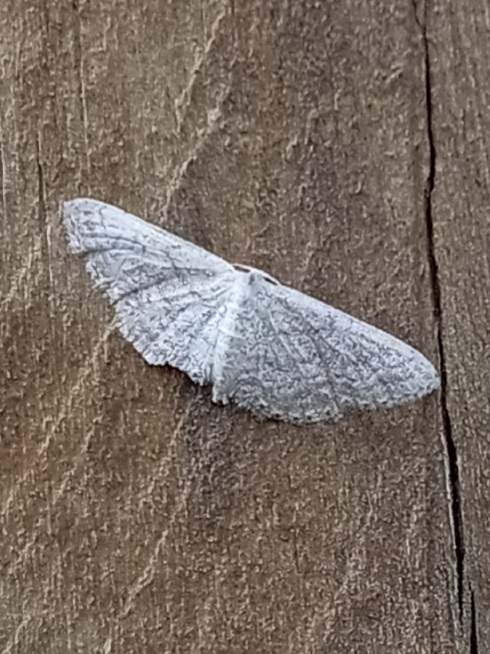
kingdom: Animalia
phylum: Arthropoda
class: Insecta
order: Lepidoptera
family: Geometridae
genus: Pleuroprucha
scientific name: Pleuroprucha insulsaria
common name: Common tan wave
